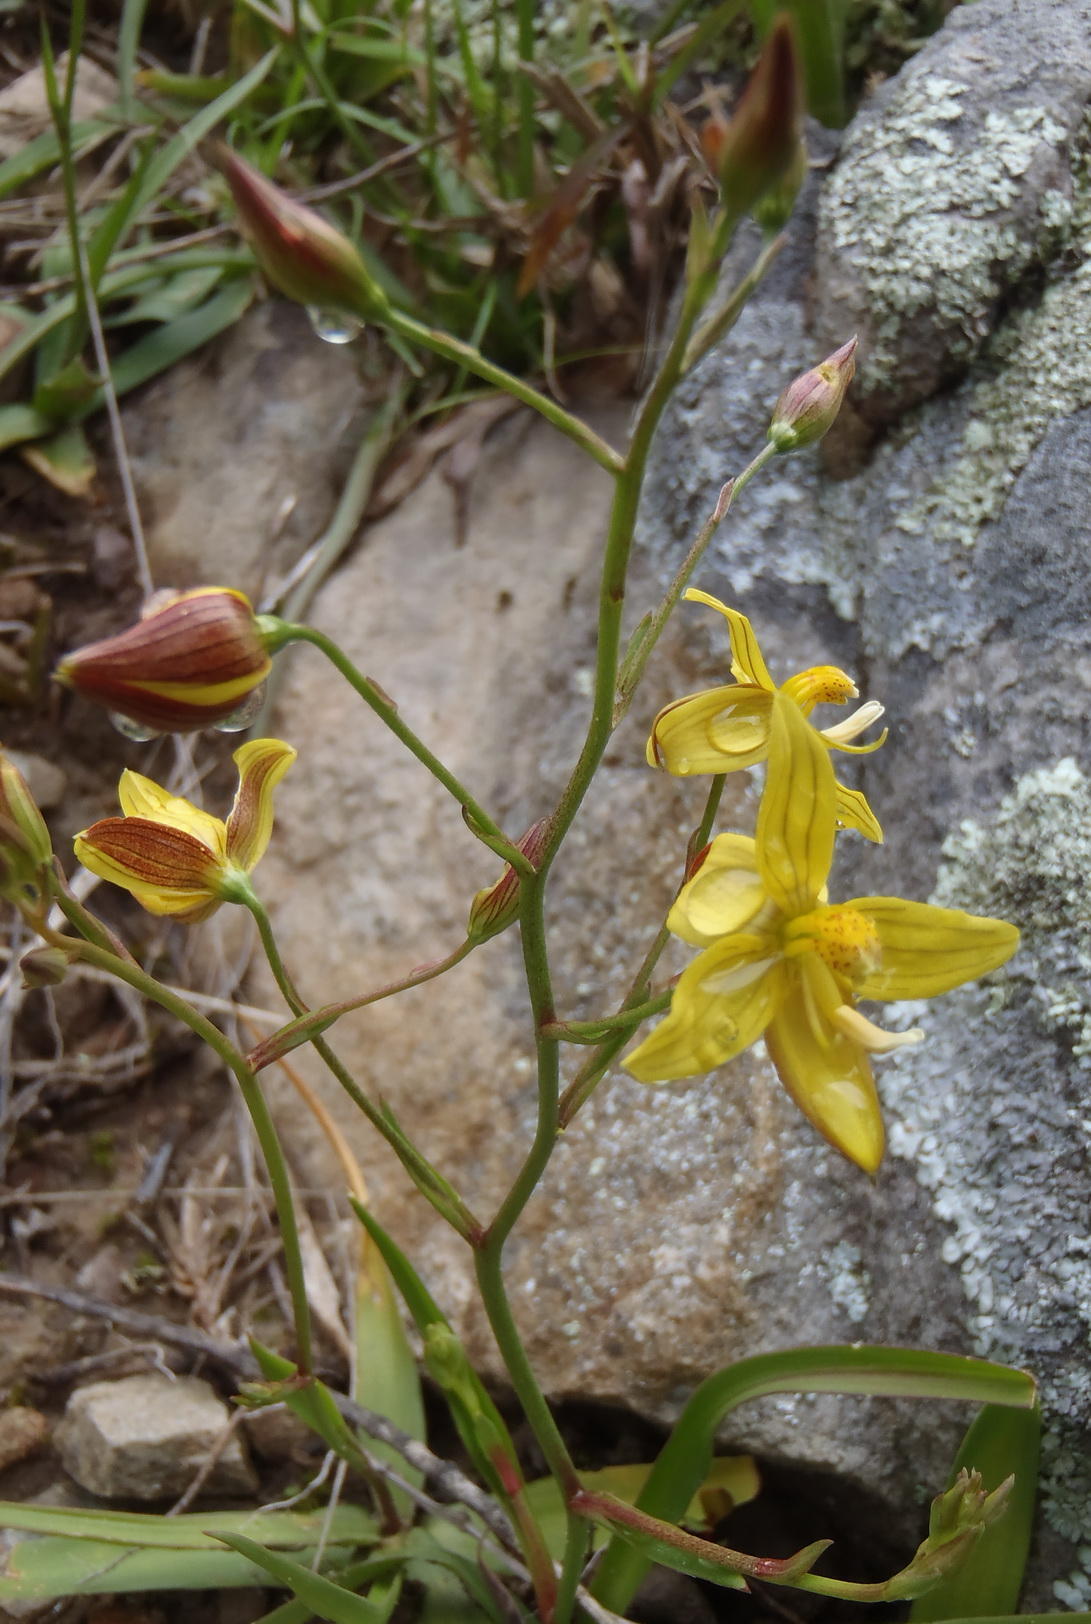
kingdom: Plantae
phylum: Tracheophyta
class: Liliopsida
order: Asparagales
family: Tecophilaeaceae
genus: Cyanella
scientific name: Cyanella lutea
